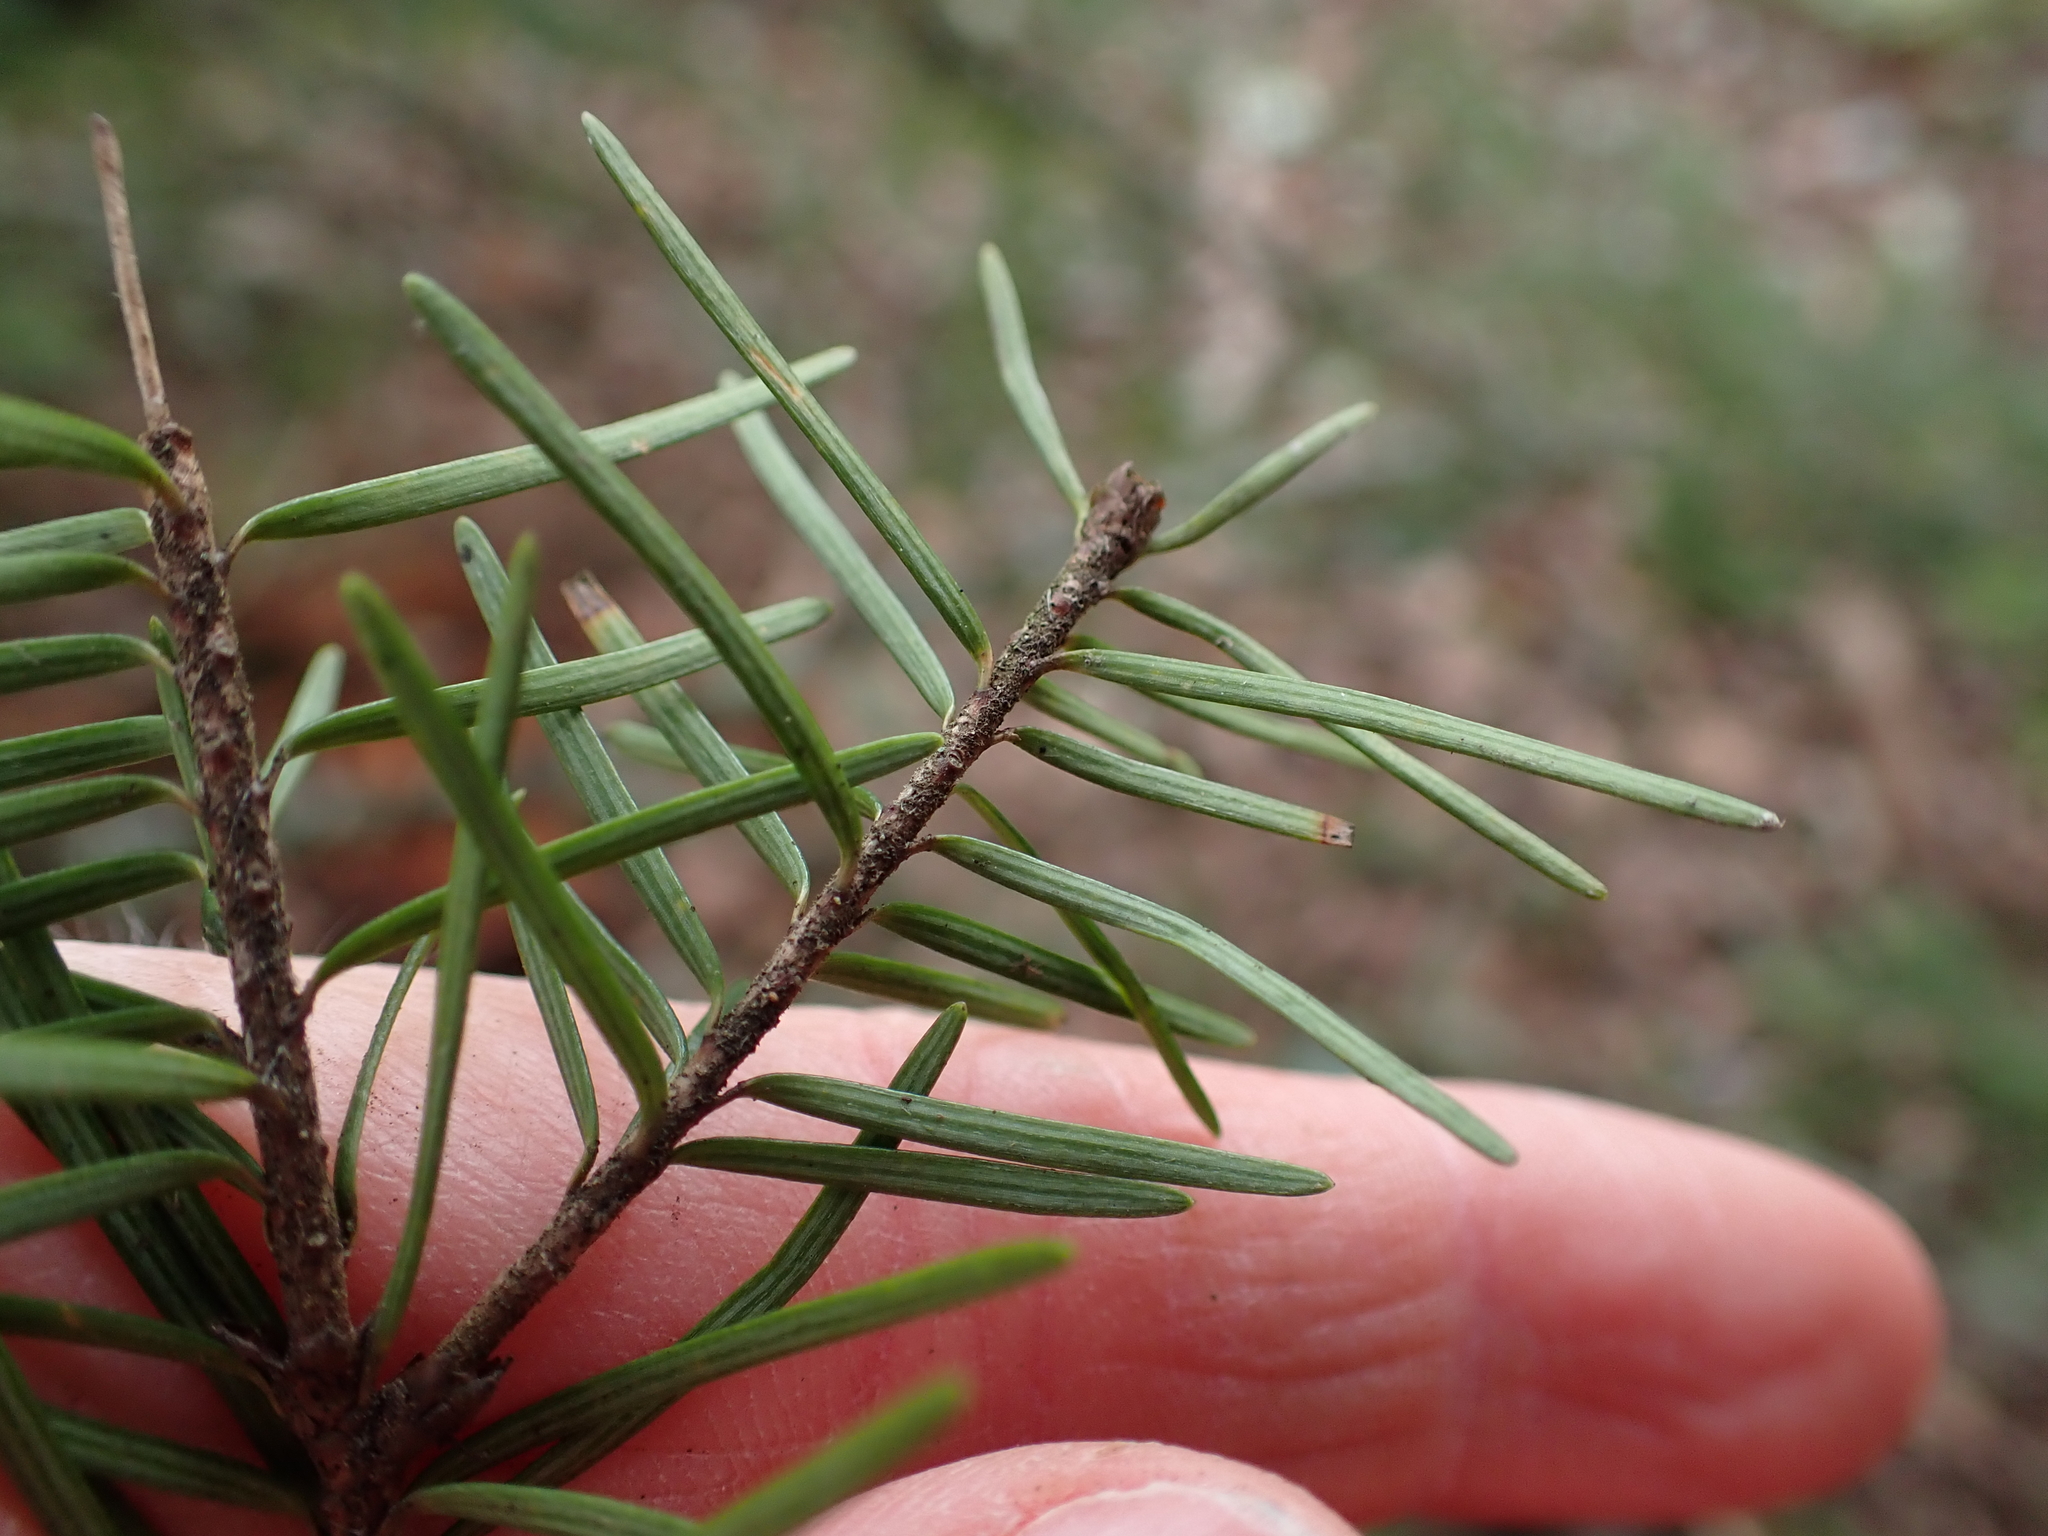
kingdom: Plantae
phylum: Tracheophyta
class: Pinopsida
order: Pinales
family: Pinaceae
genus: Pseudotsuga
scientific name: Pseudotsuga menziesii
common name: Douglas fir
